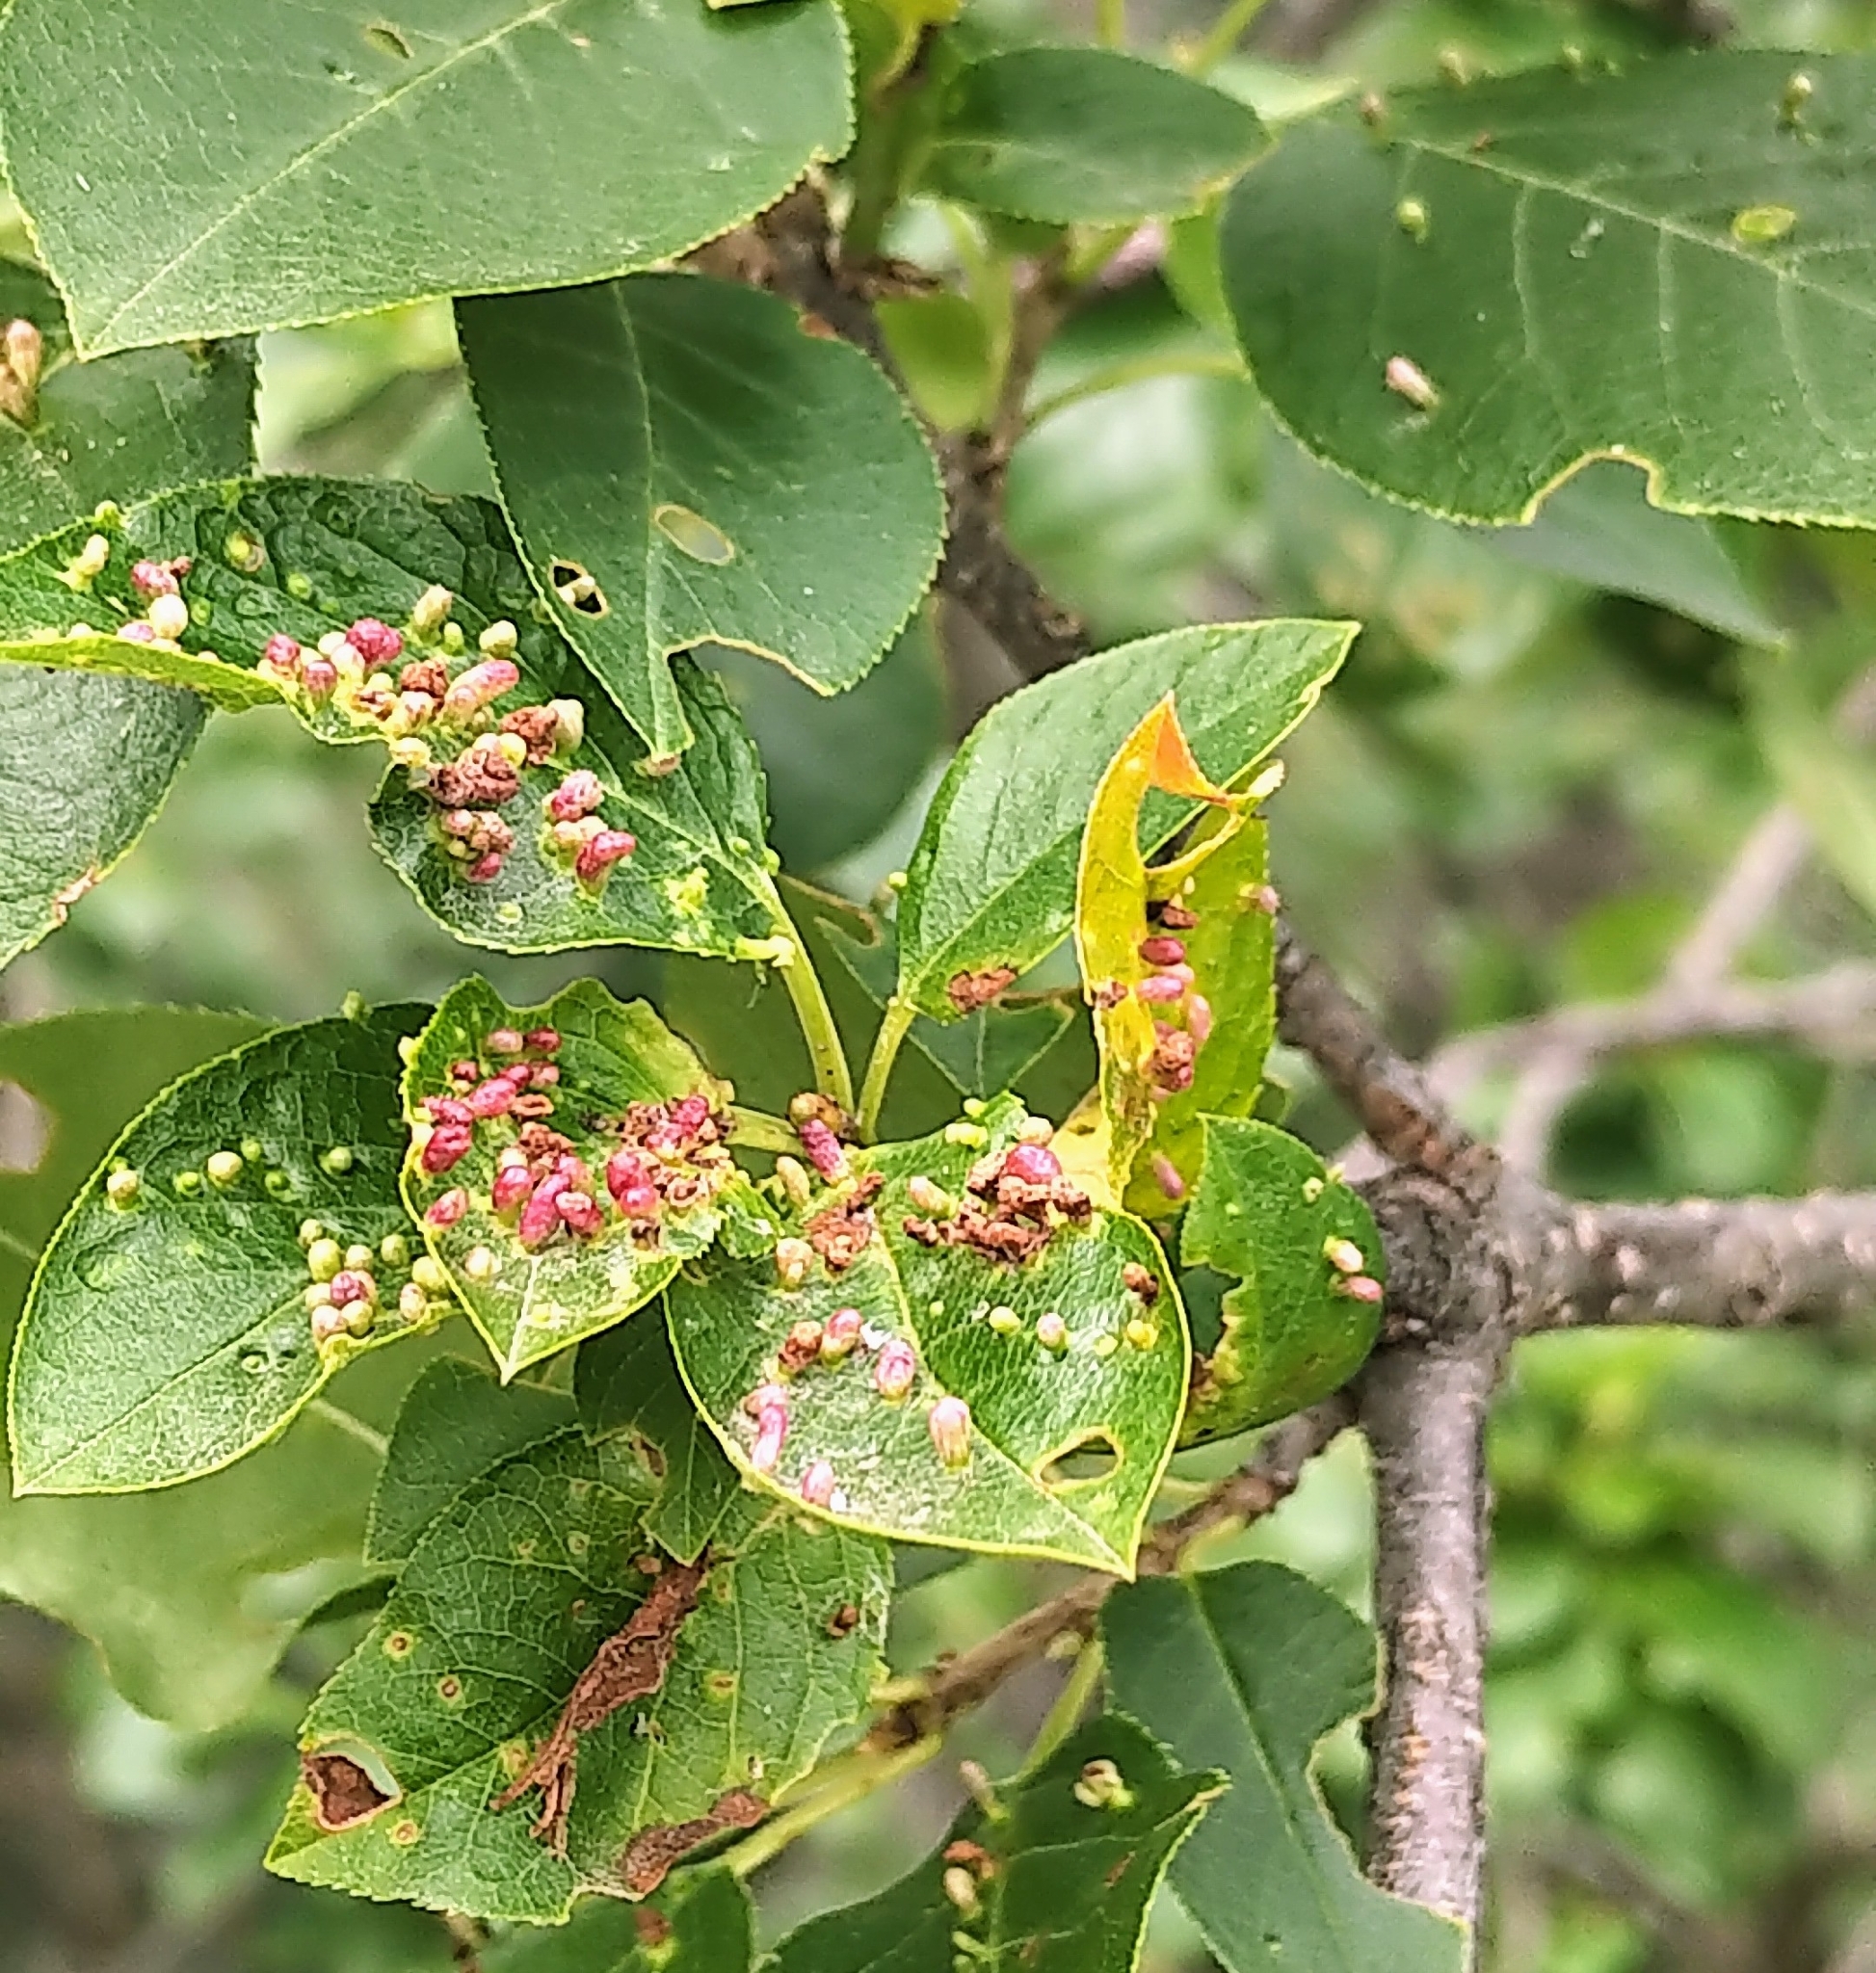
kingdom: Animalia
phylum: Arthropoda
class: Arachnida
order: Trombidiformes
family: Eriophyidae
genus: Eriophyes
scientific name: Eriophyes emarginatae
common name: Plum leaf gall mite
